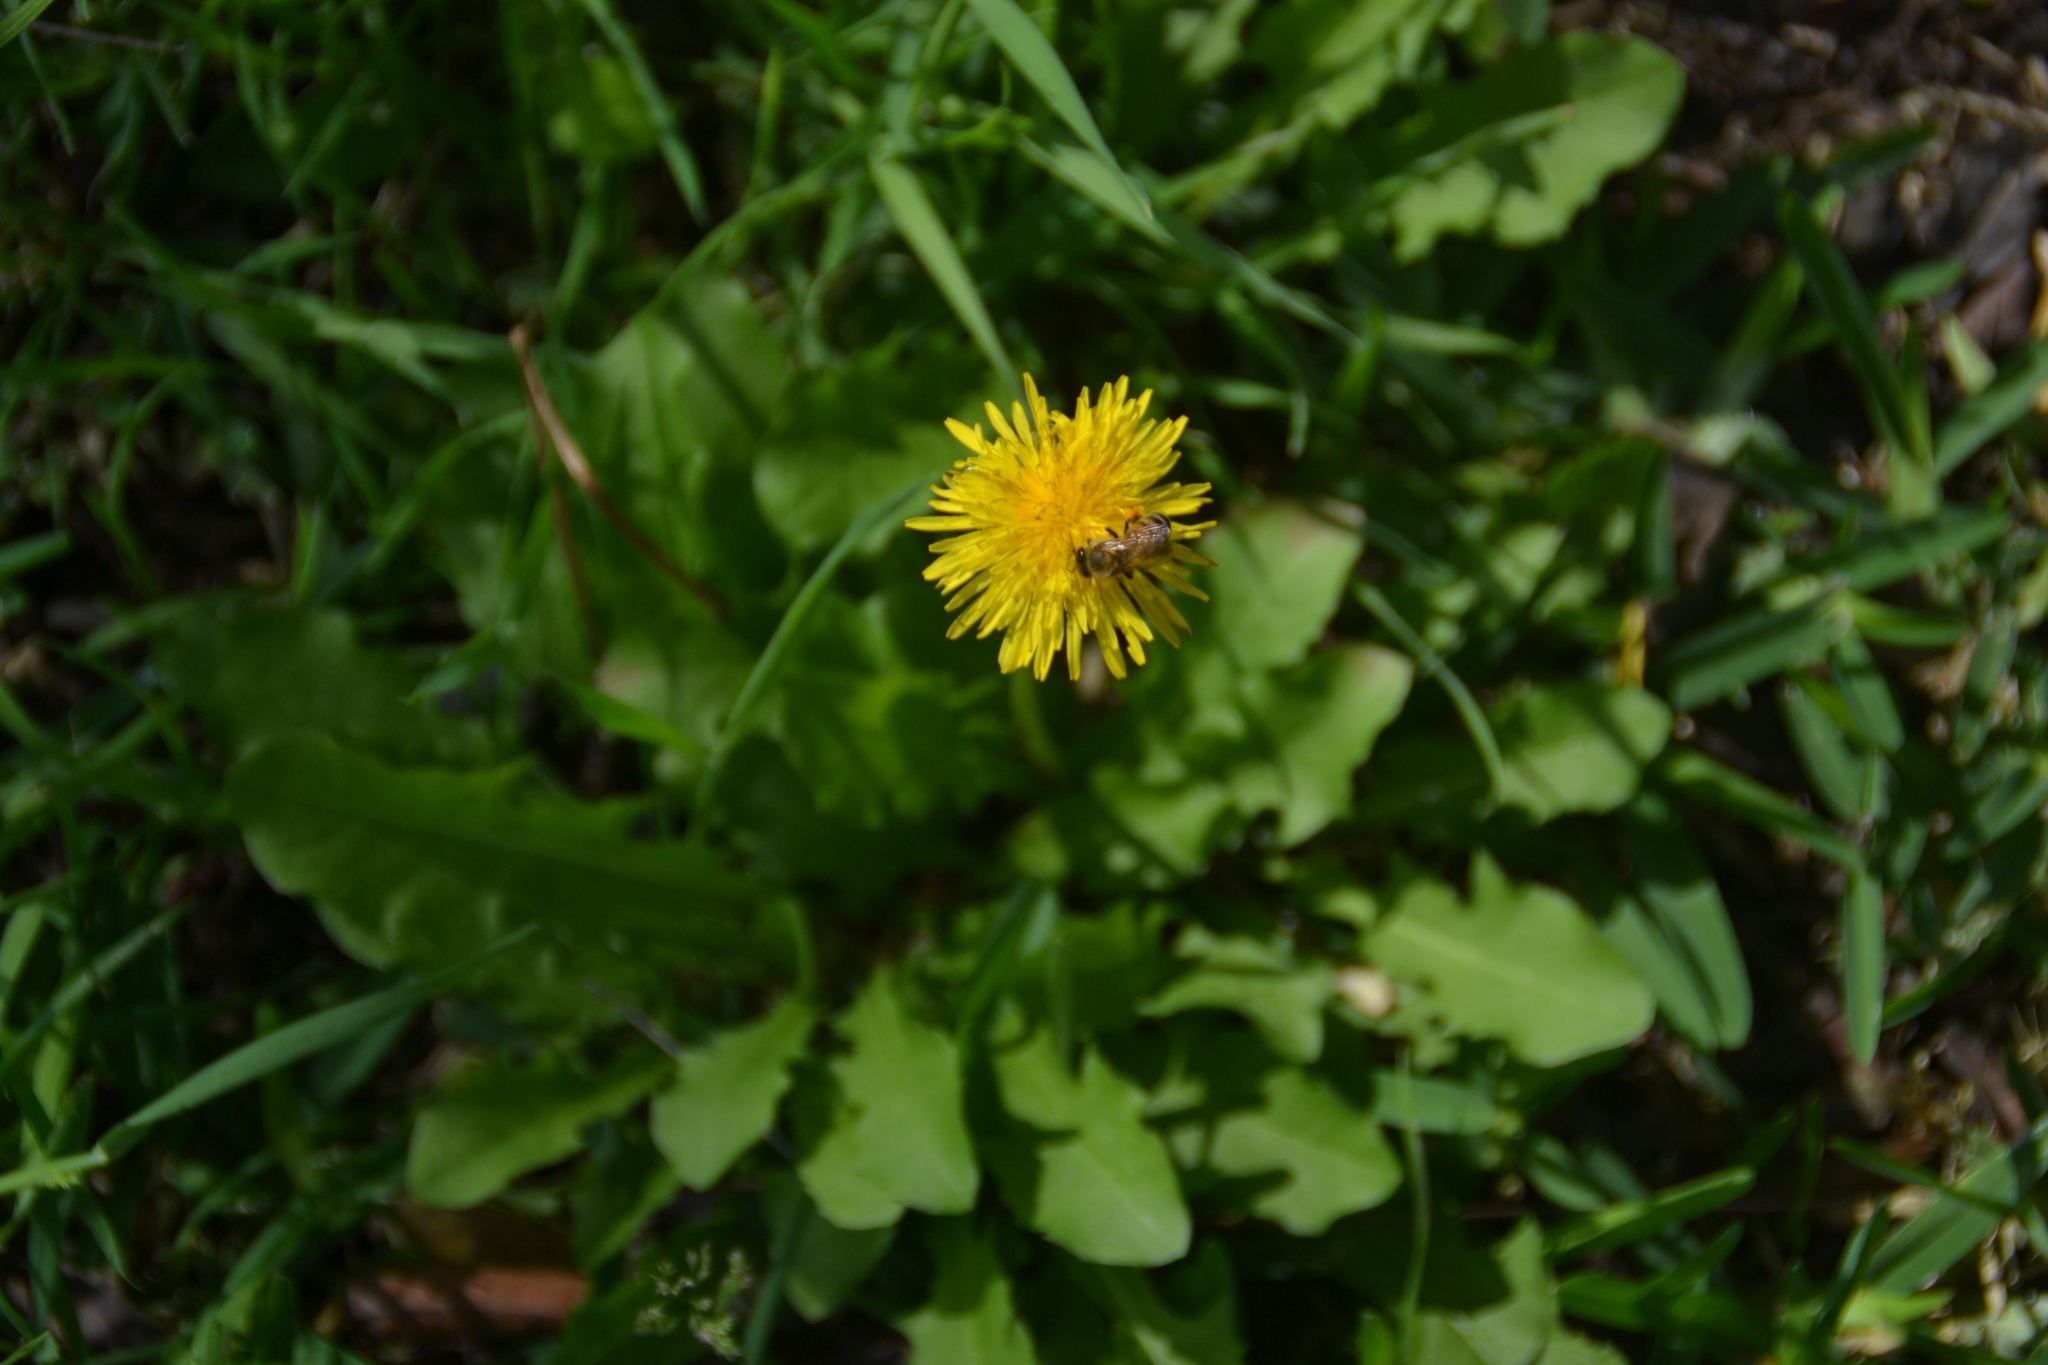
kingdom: Animalia
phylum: Arthropoda
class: Insecta
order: Hymenoptera
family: Apidae
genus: Apis
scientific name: Apis mellifera
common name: Honey bee
